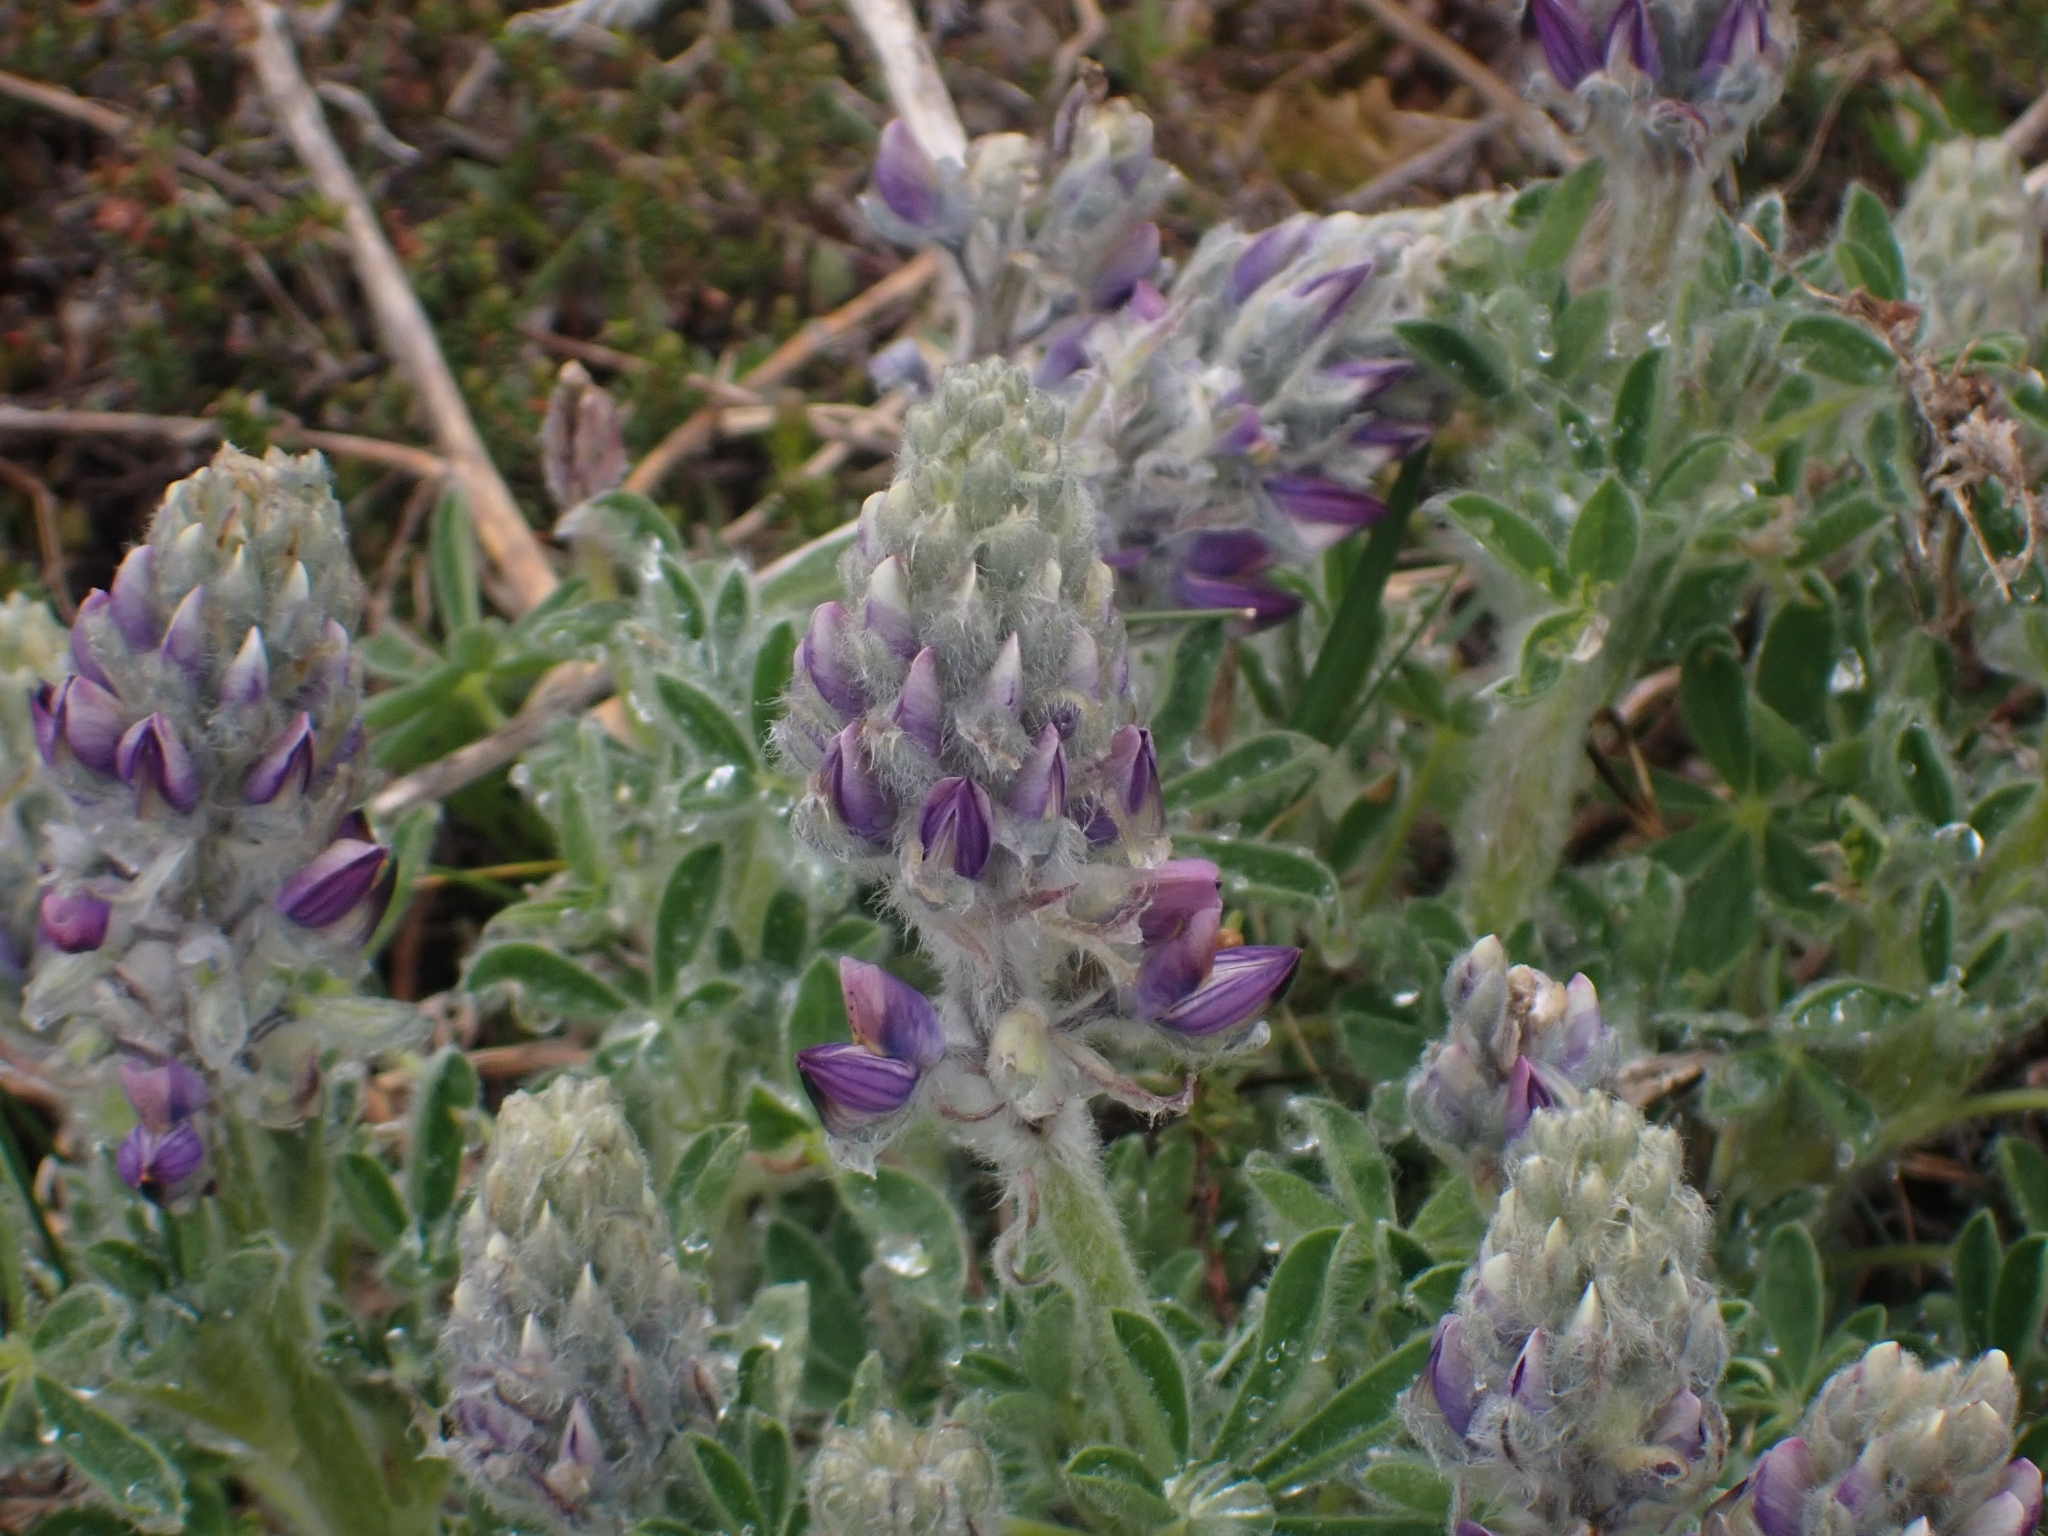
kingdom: Plantae
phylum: Tracheophyta
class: Magnoliopsida
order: Fabales
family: Fabaceae
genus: Lupinus
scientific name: Lupinus nootkatensis
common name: Nootka lupine
